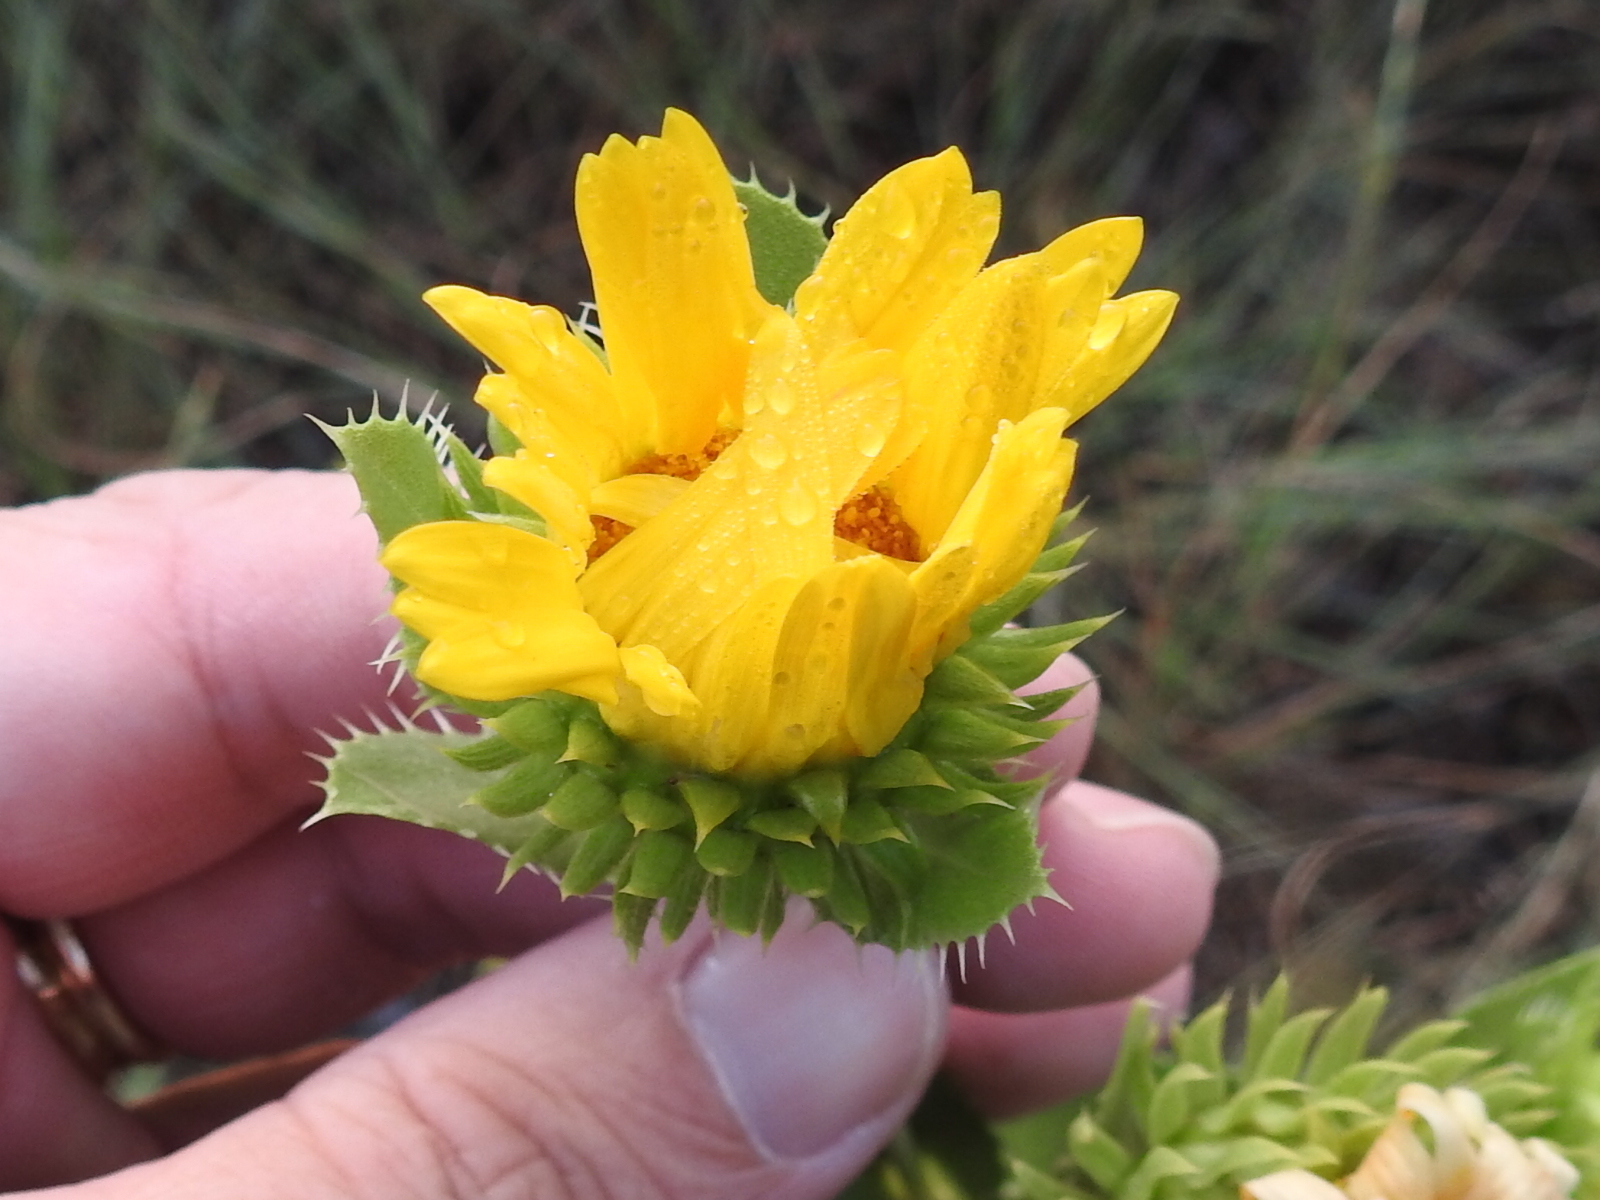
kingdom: Plantae
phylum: Tracheophyta
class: Magnoliopsida
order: Asterales
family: Asteraceae
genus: Grindelia
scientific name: Grindelia ciliata
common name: Goldenweed
